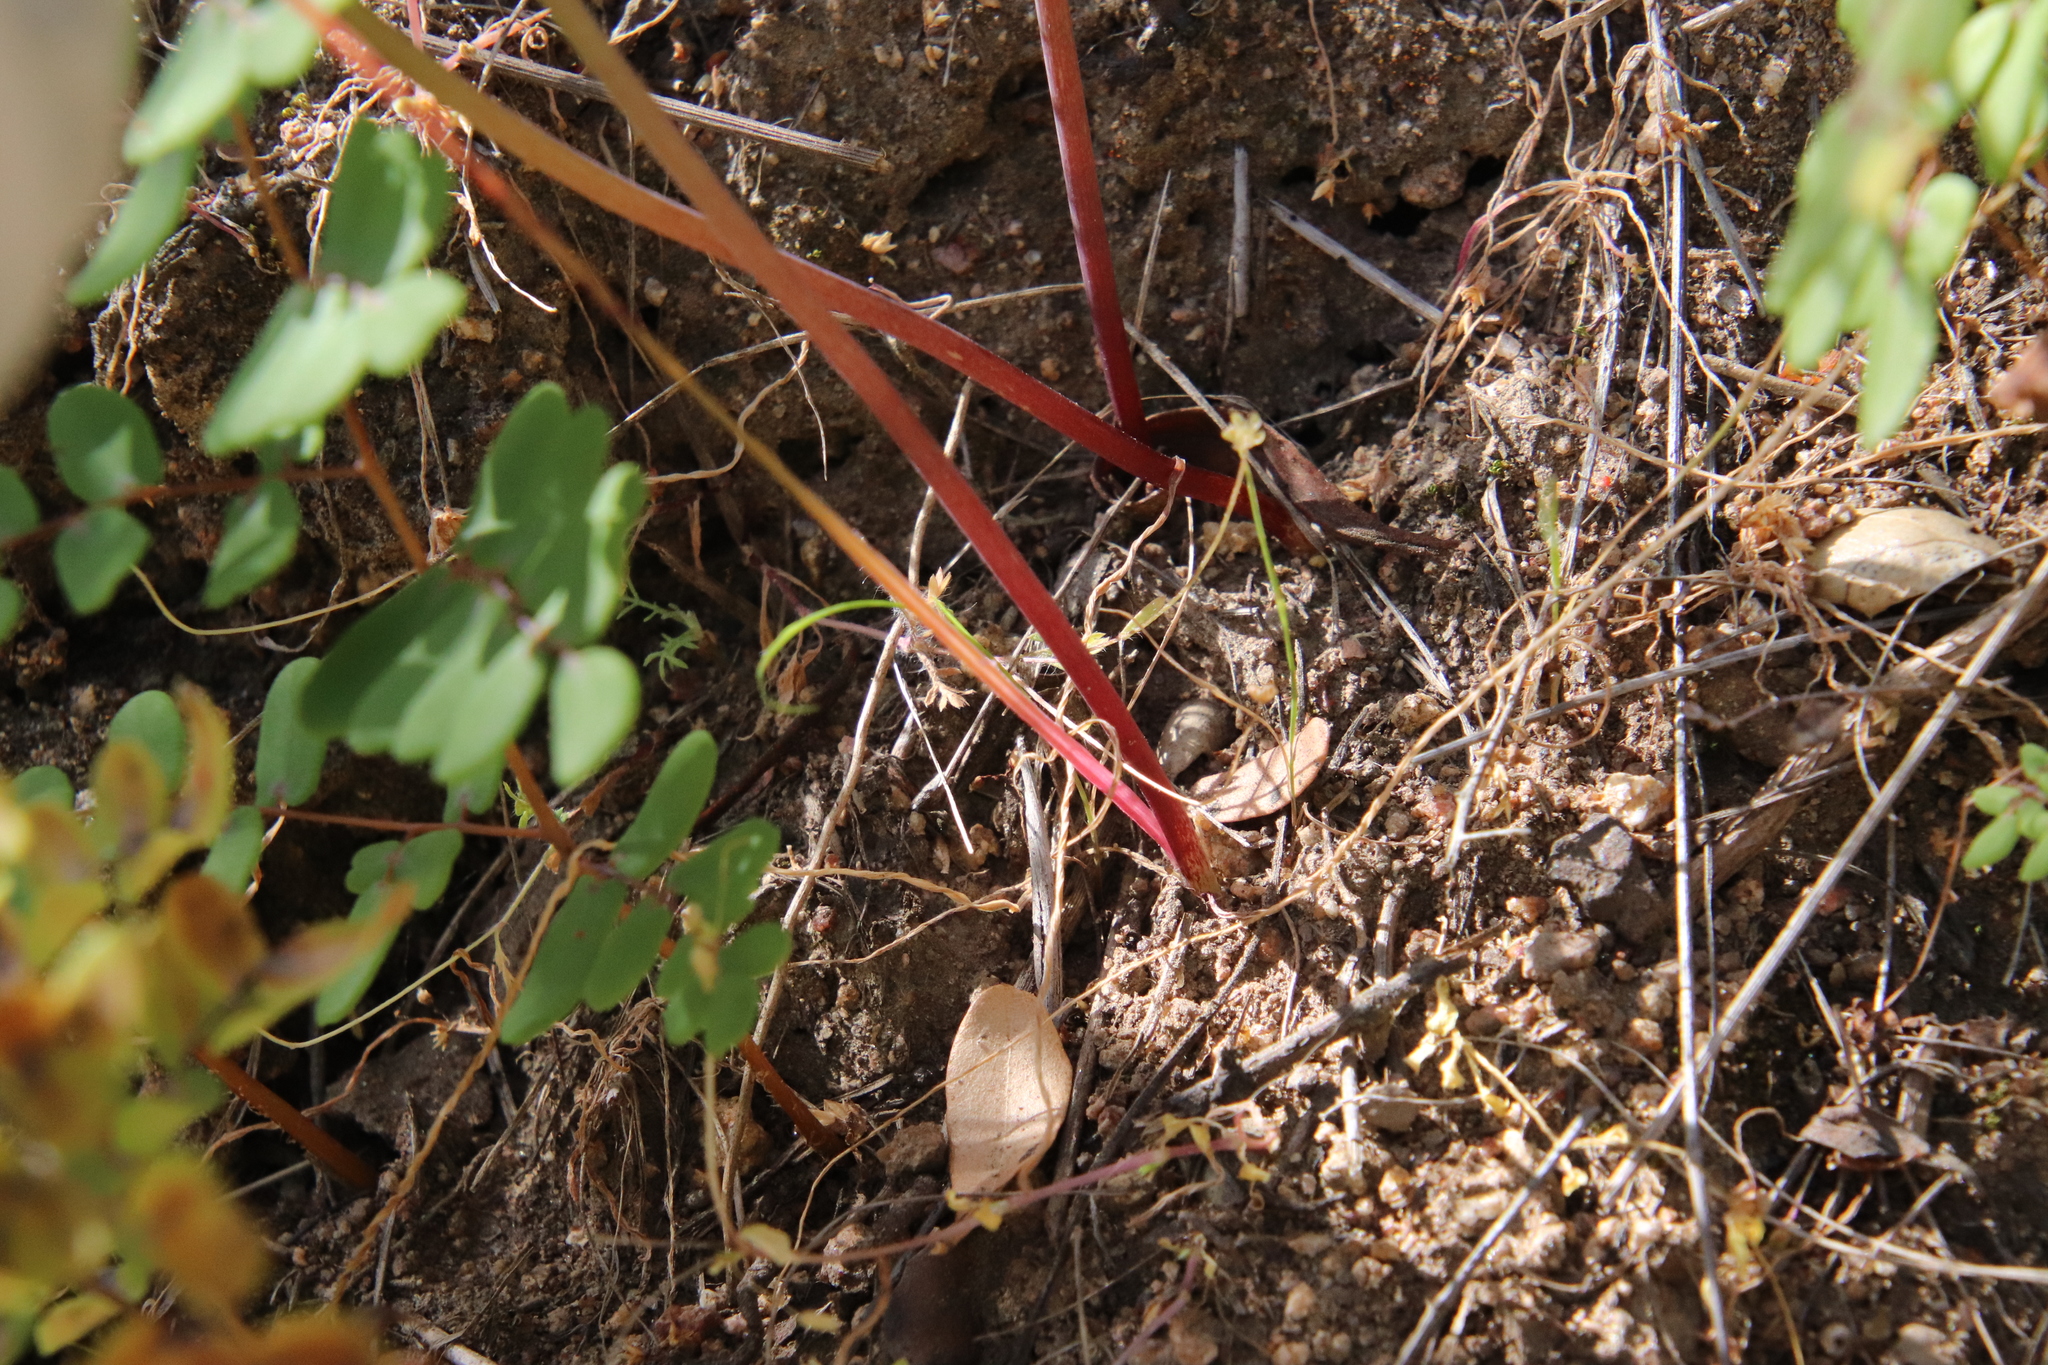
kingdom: Plantae
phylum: Tracheophyta
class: Liliopsida
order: Asparagales
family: Amaryllidaceae
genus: Allium
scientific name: Allium peninsulare
